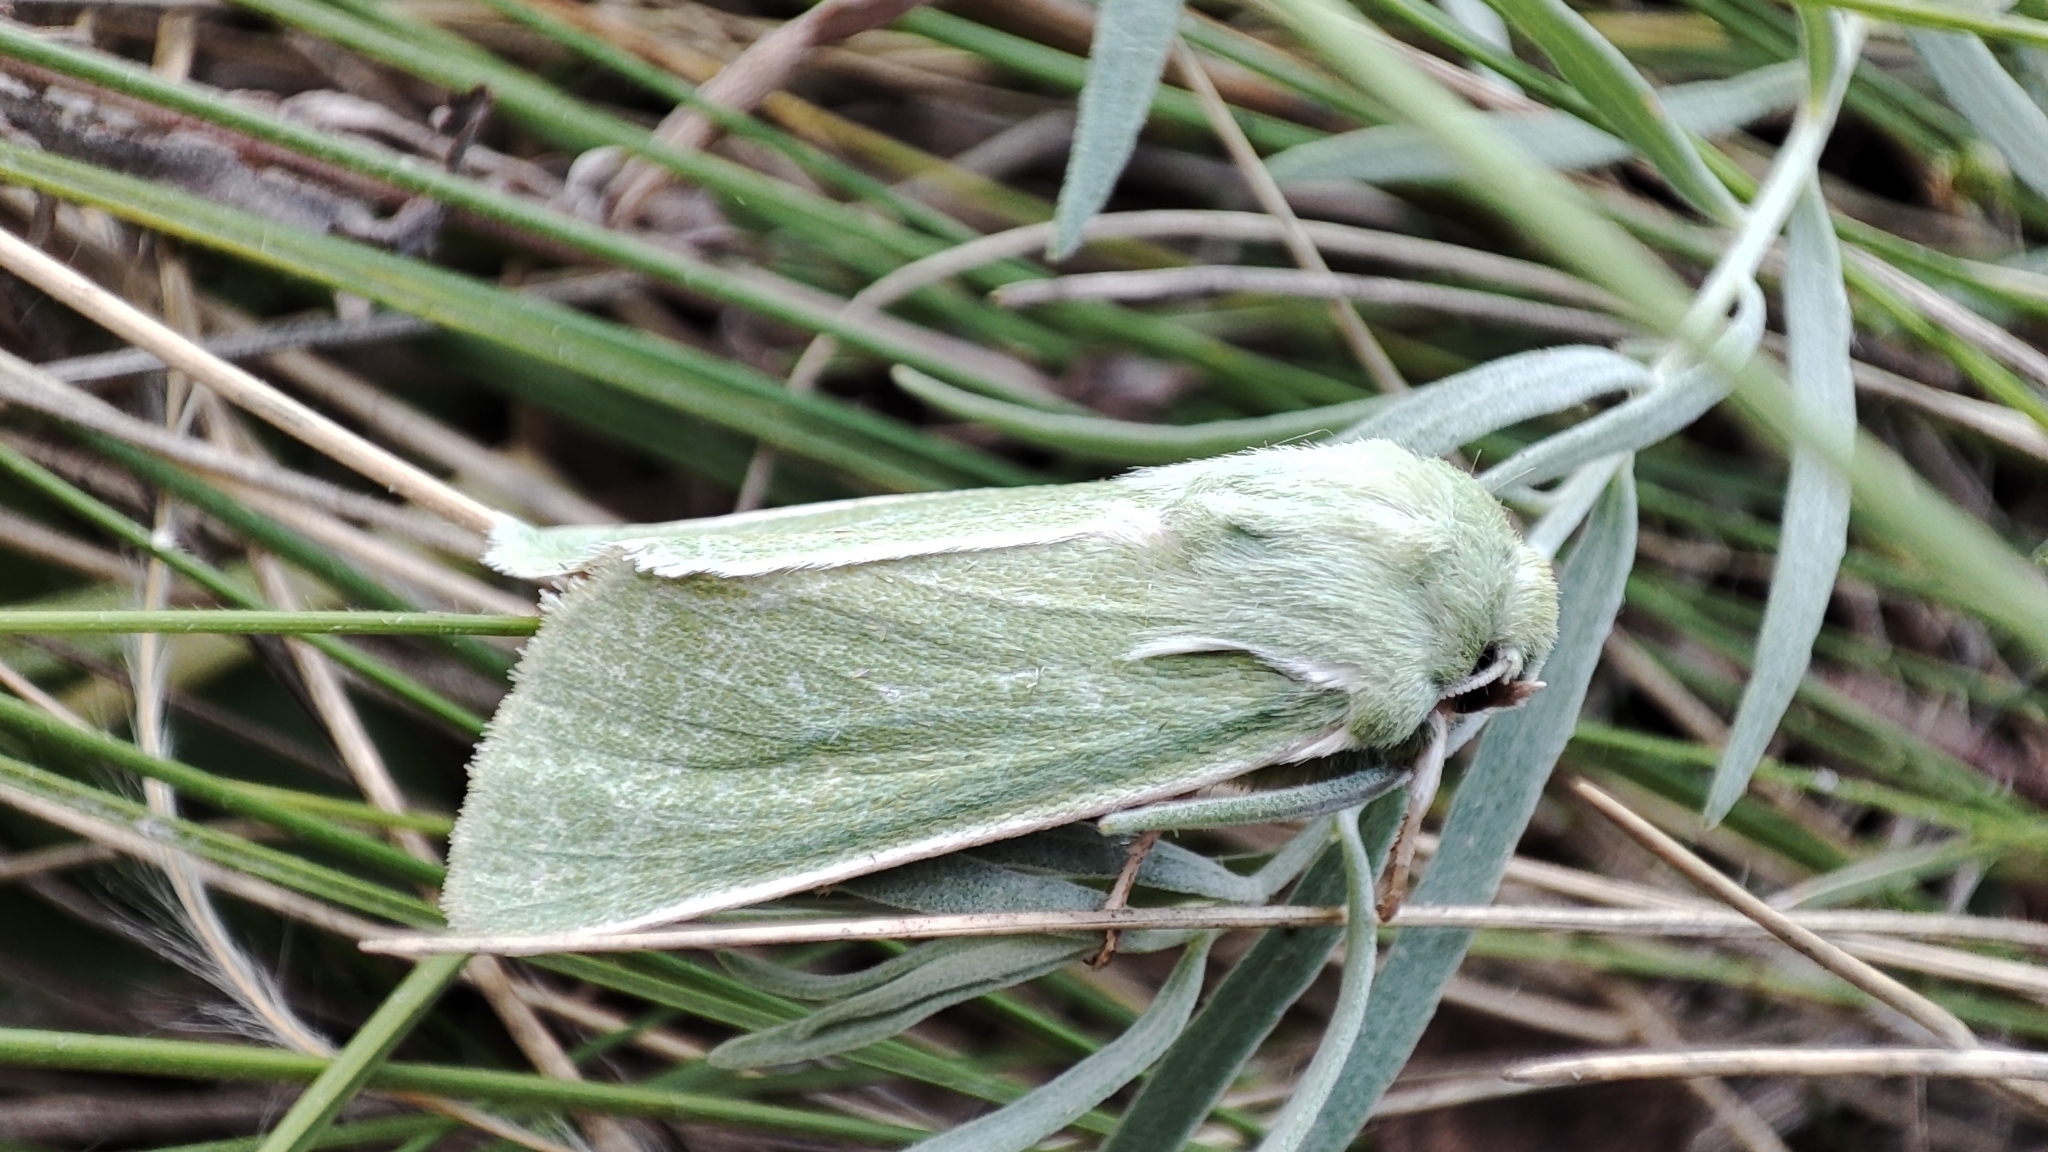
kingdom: Animalia
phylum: Arthropoda
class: Insecta
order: Lepidoptera
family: Noctuidae
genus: Calamia
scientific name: Calamia tridens
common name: Burren green
